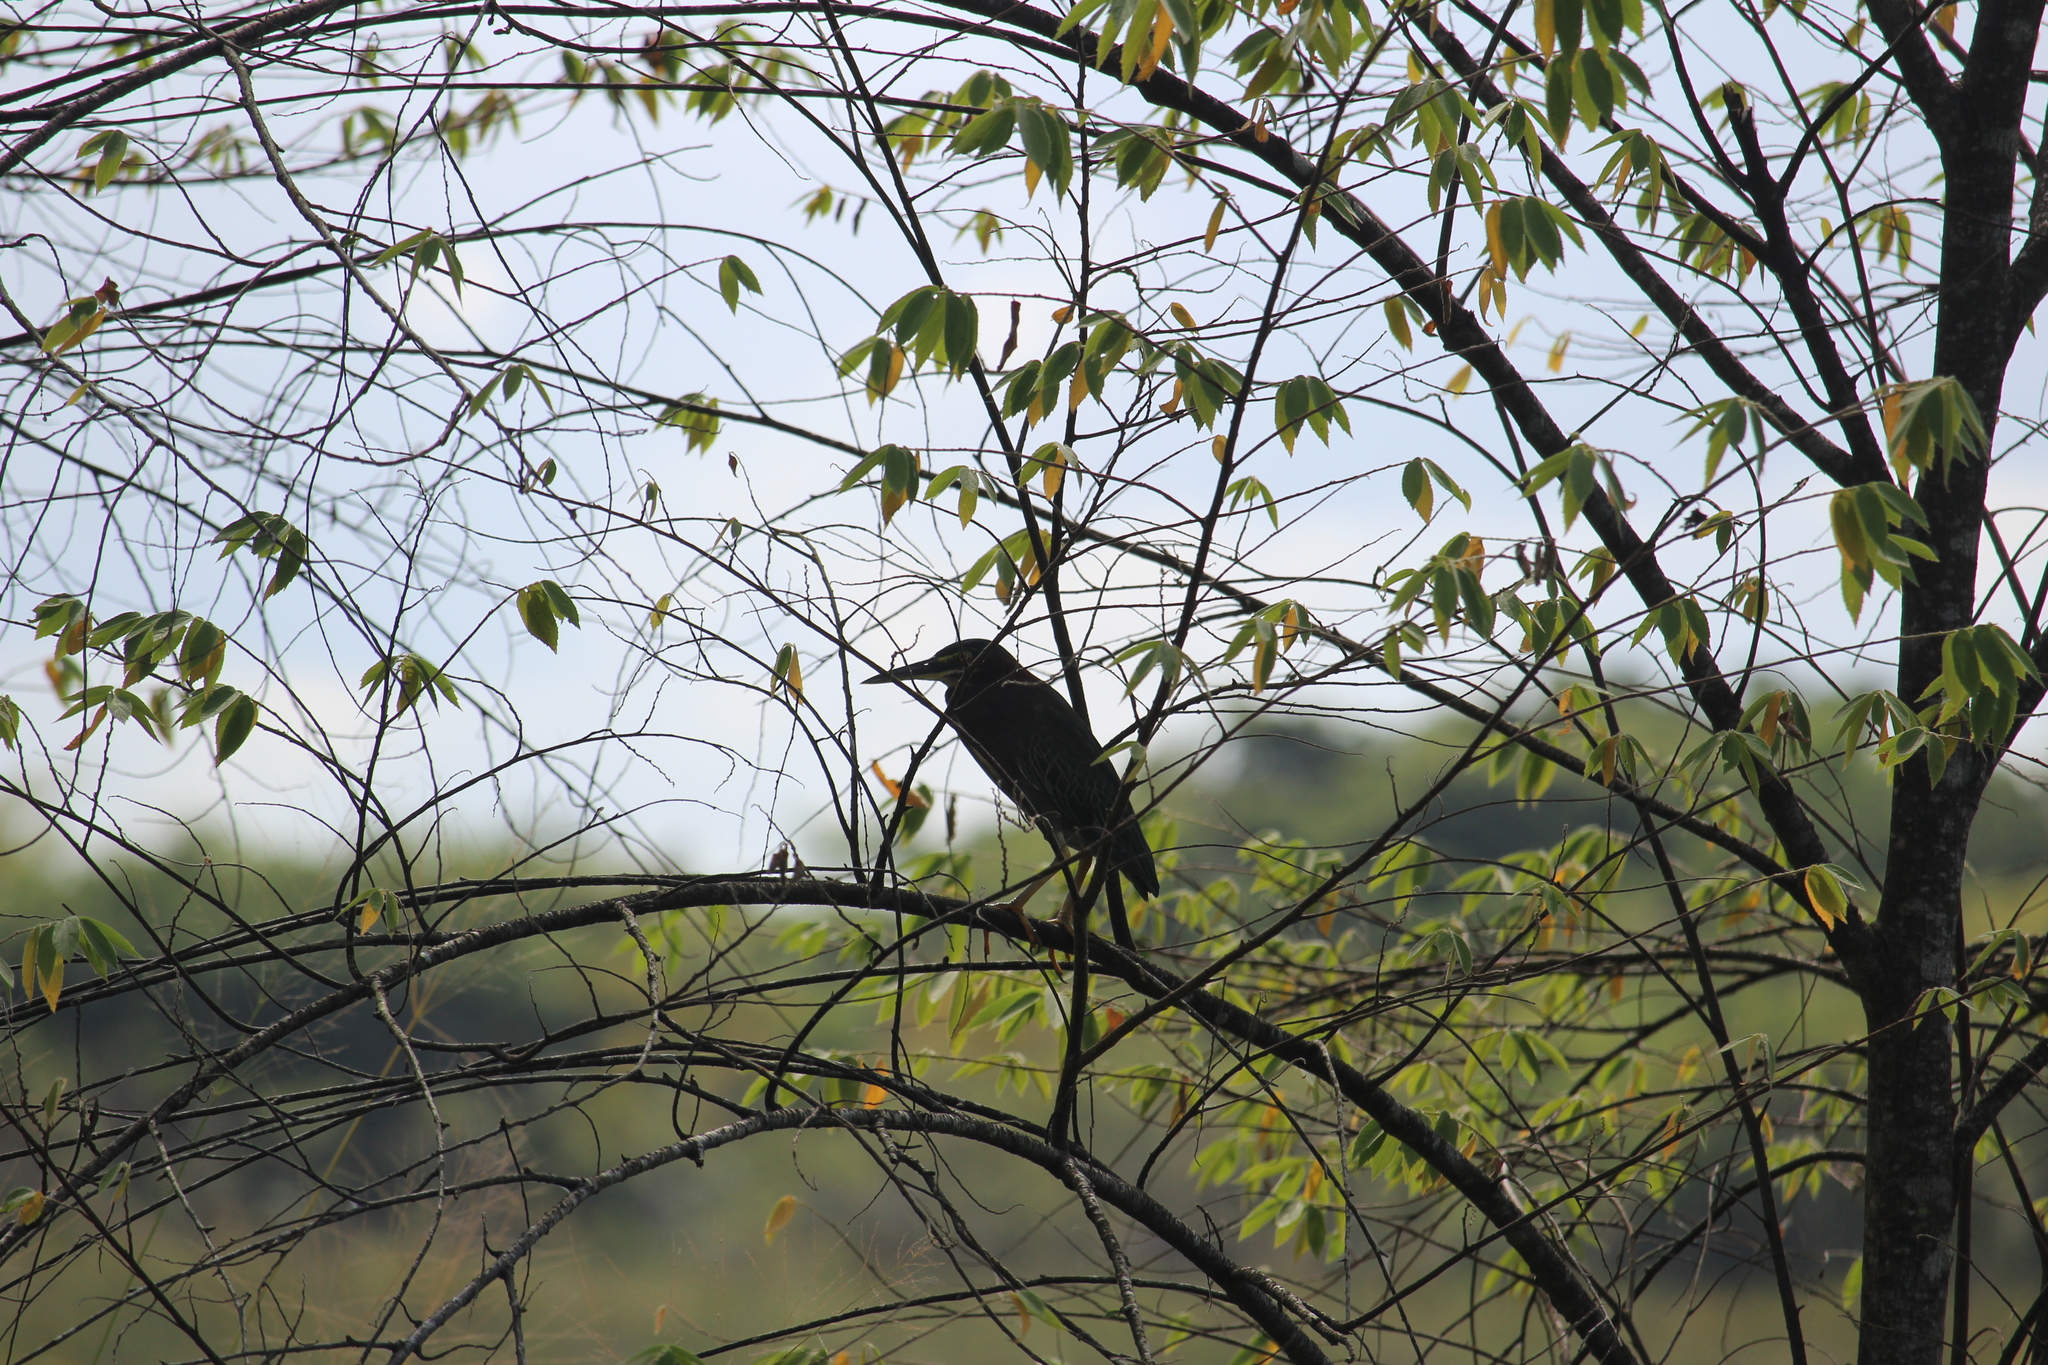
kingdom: Animalia
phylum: Chordata
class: Aves
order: Pelecaniformes
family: Ardeidae
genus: Butorides
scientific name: Butorides virescens
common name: Green heron
